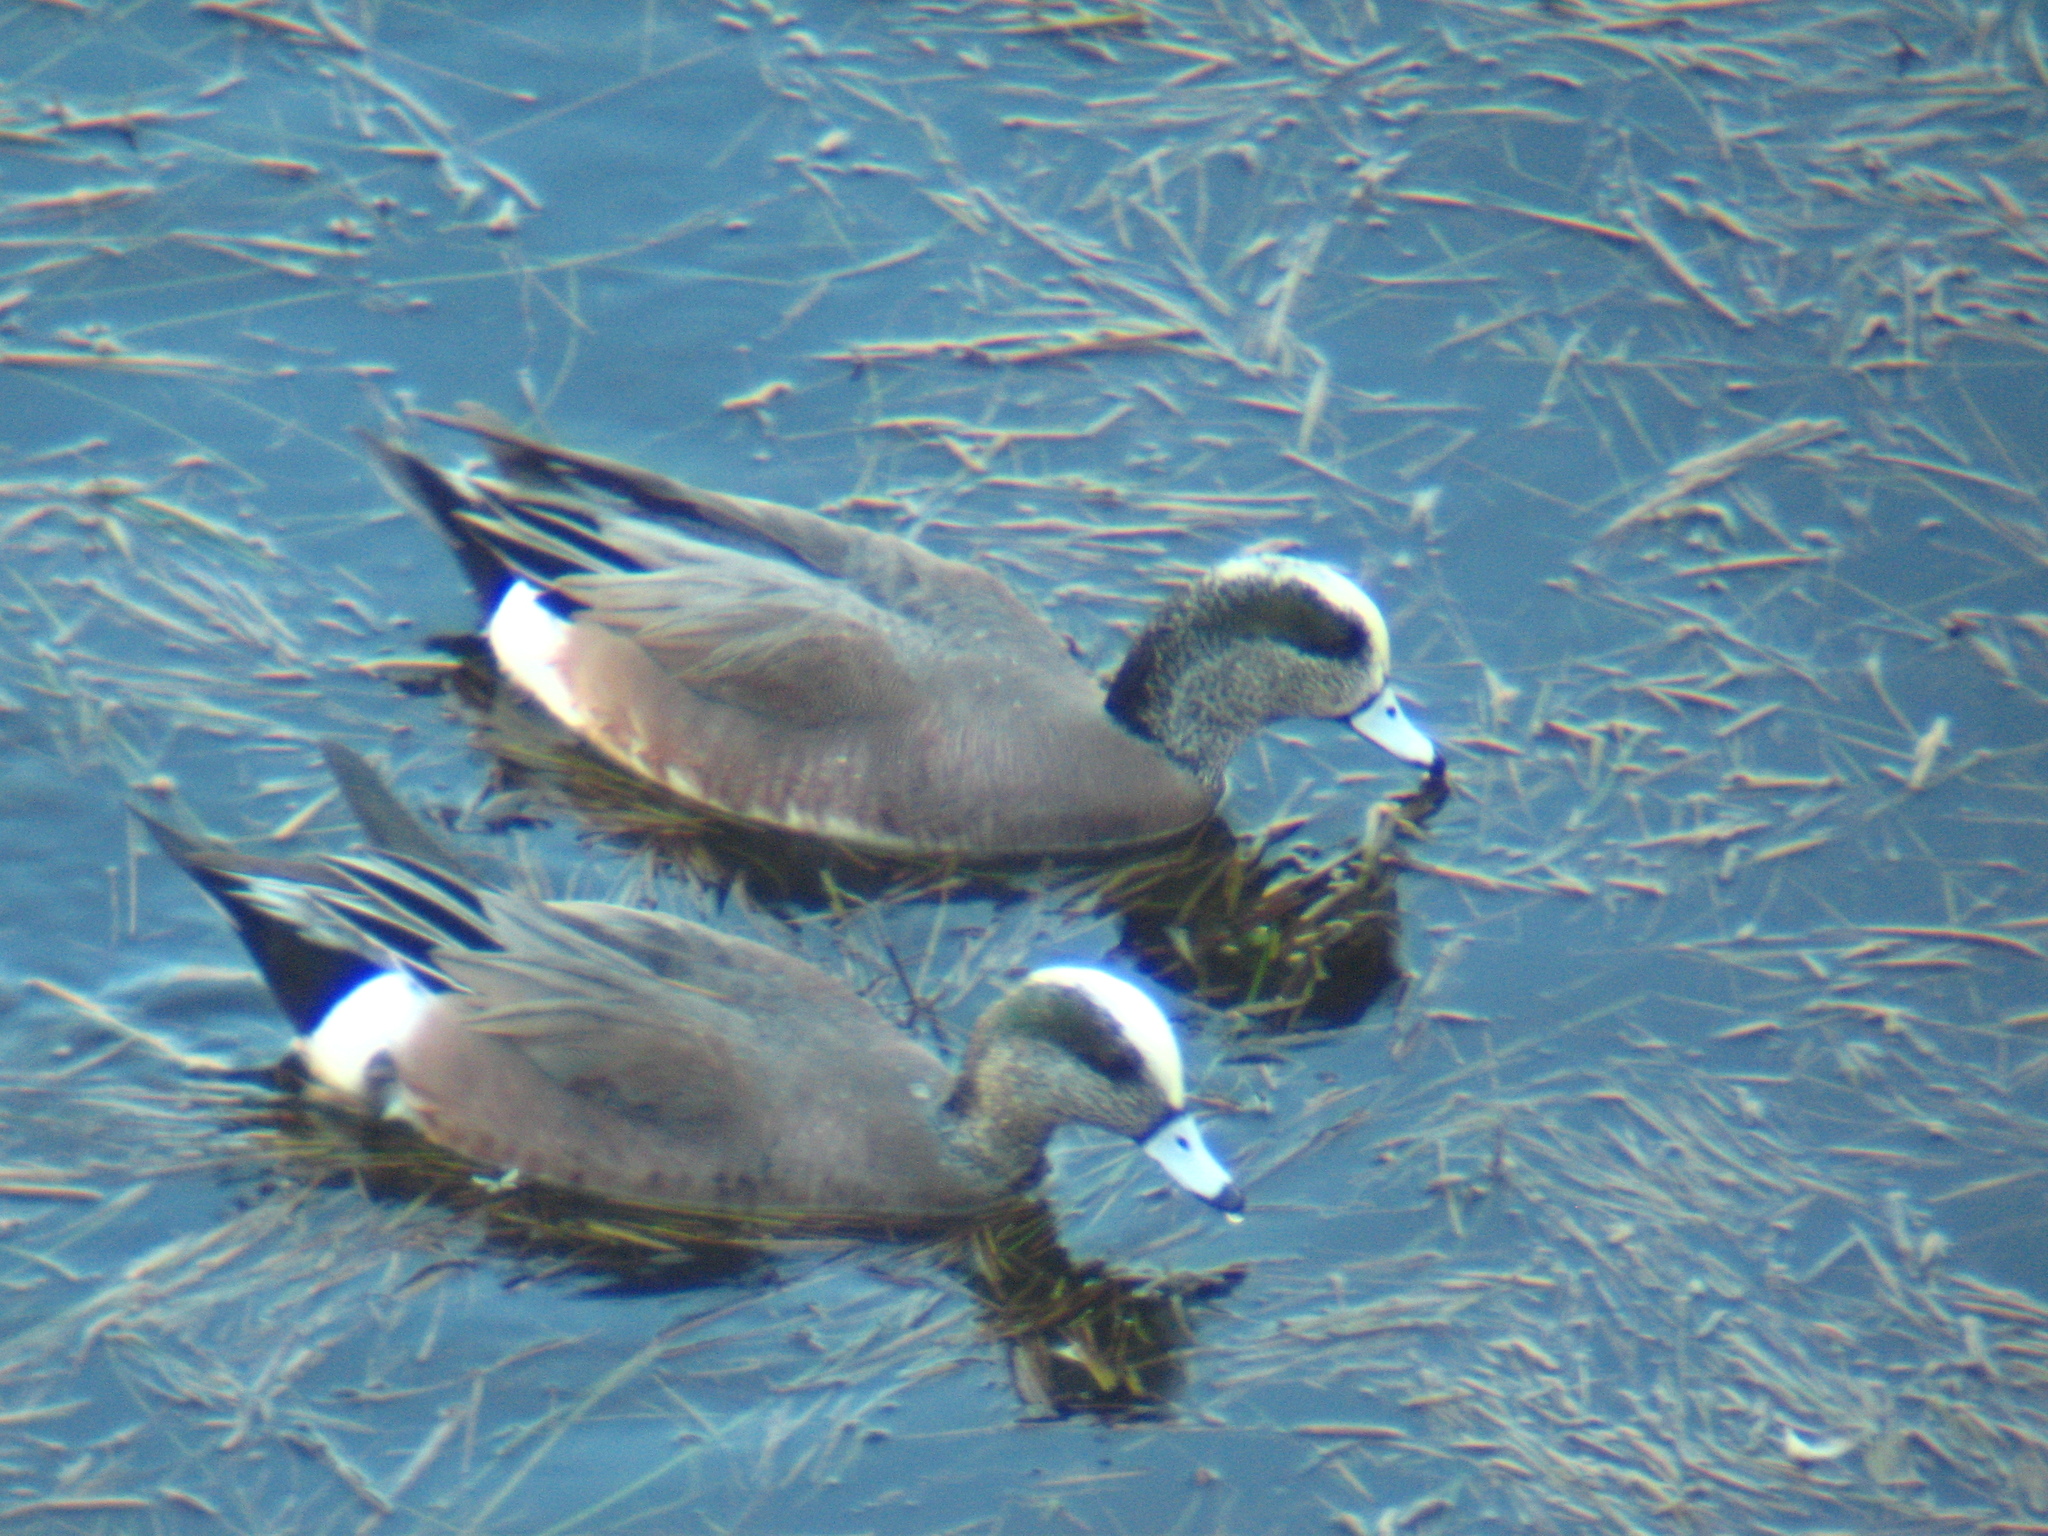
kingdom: Animalia
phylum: Chordata
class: Aves
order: Anseriformes
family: Anatidae
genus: Mareca
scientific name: Mareca americana
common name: American wigeon
